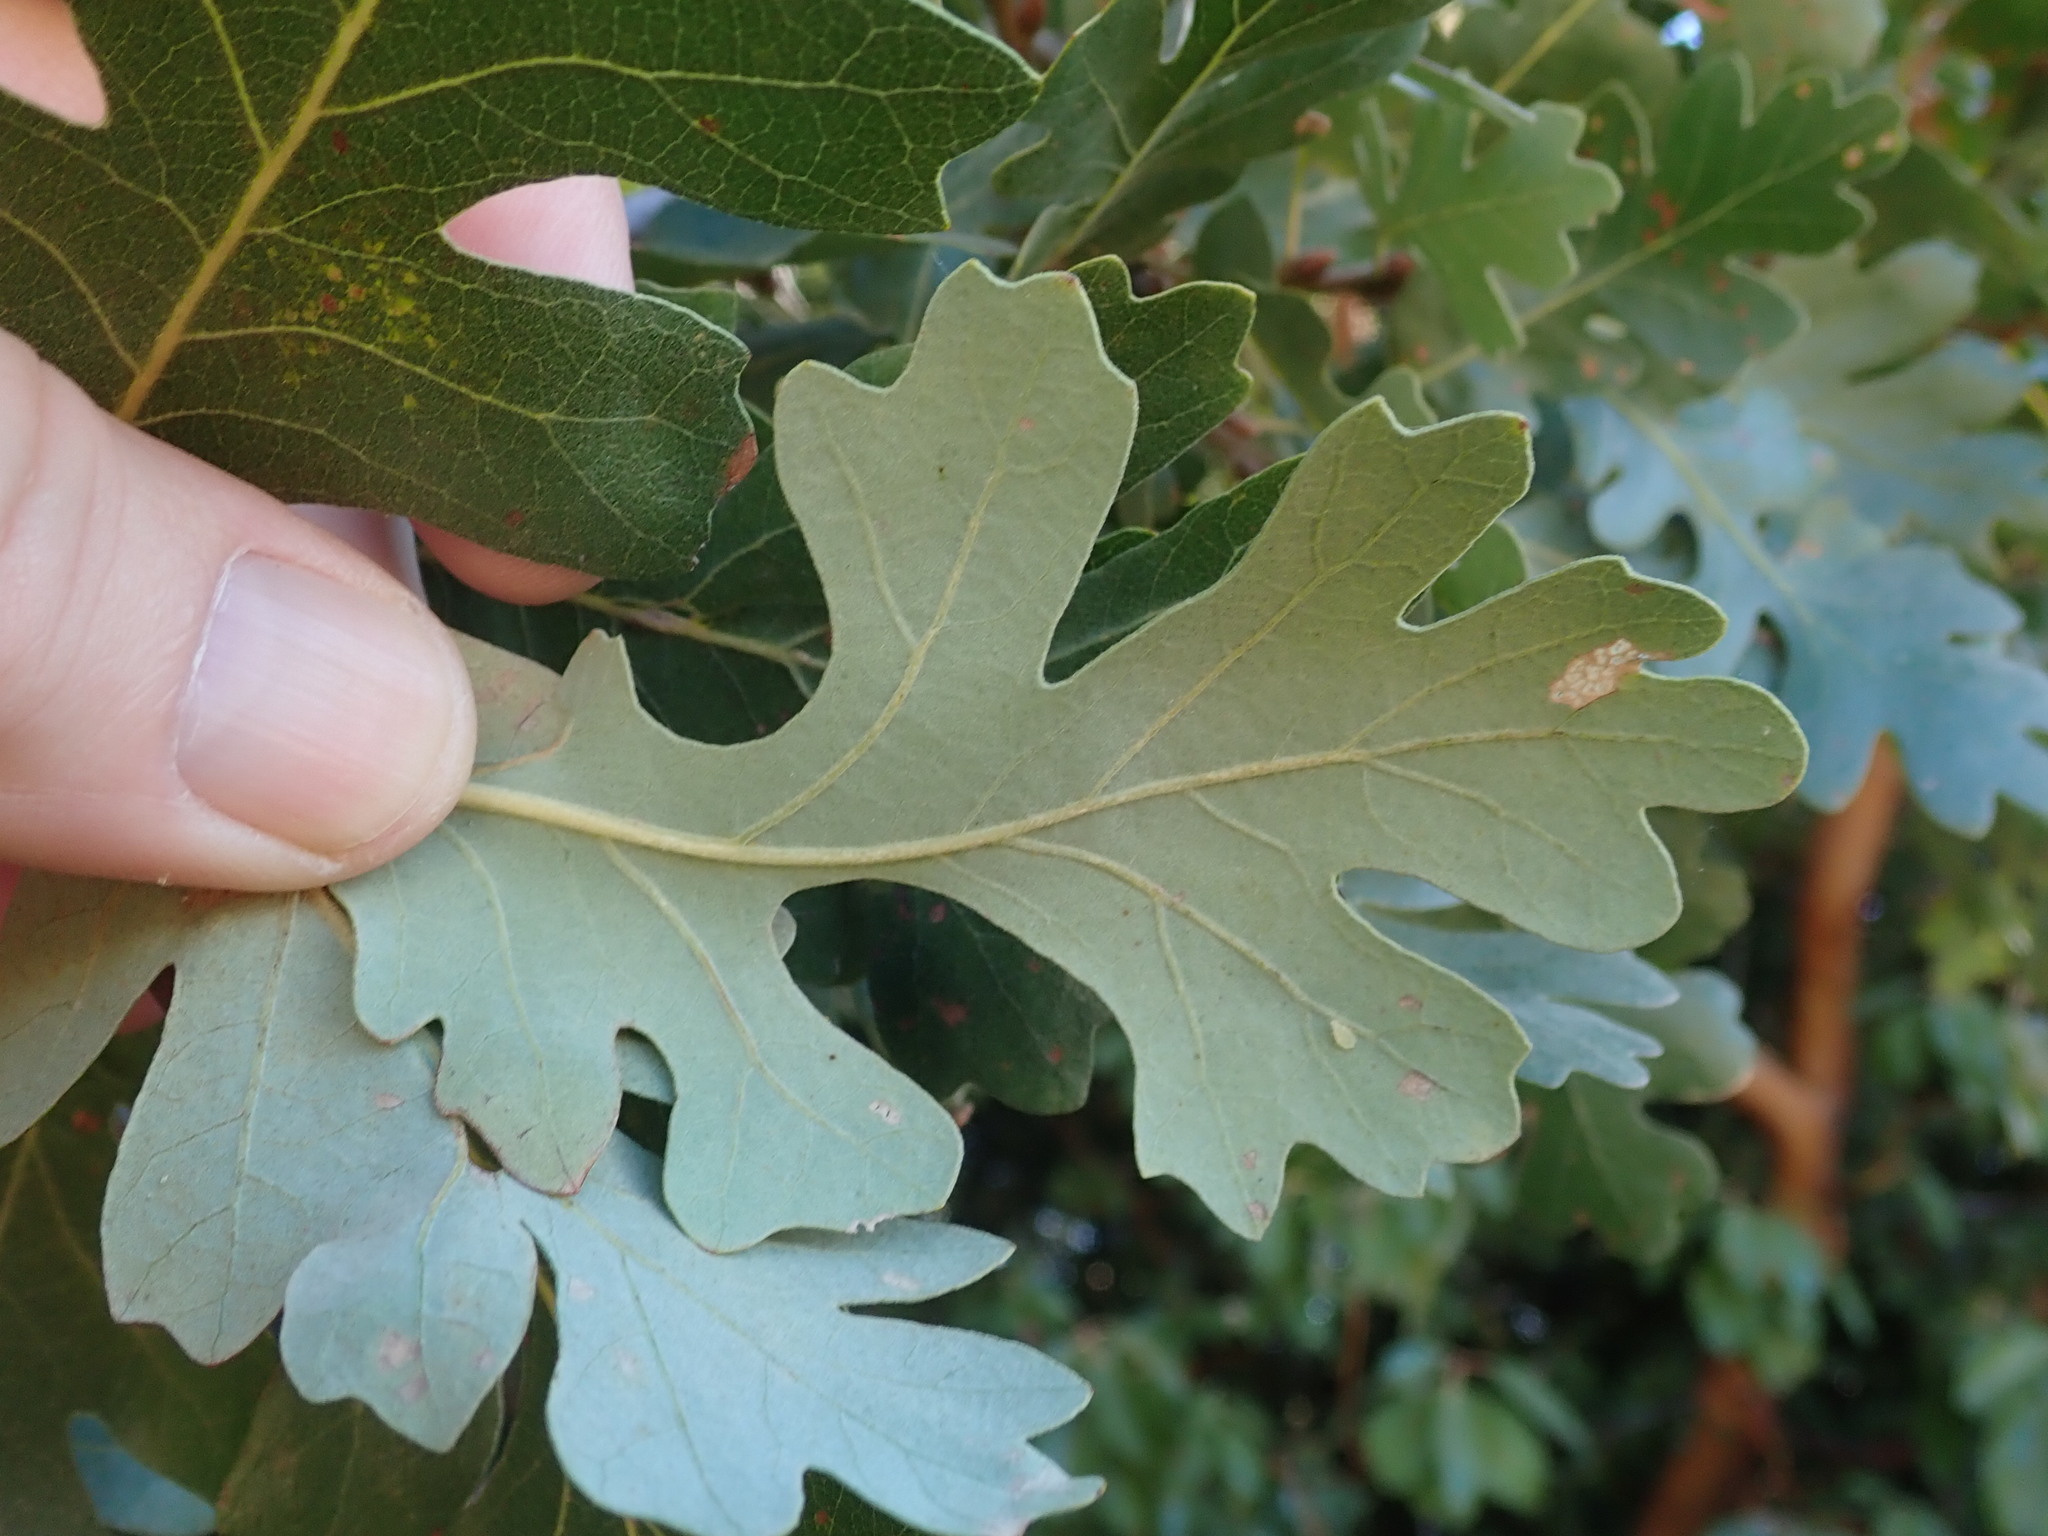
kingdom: Plantae
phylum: Tracheophyta
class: Magnoliopsida
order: Fagales
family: Fagaceae
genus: Quercus
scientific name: Quercus lobata
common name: Valley oak
